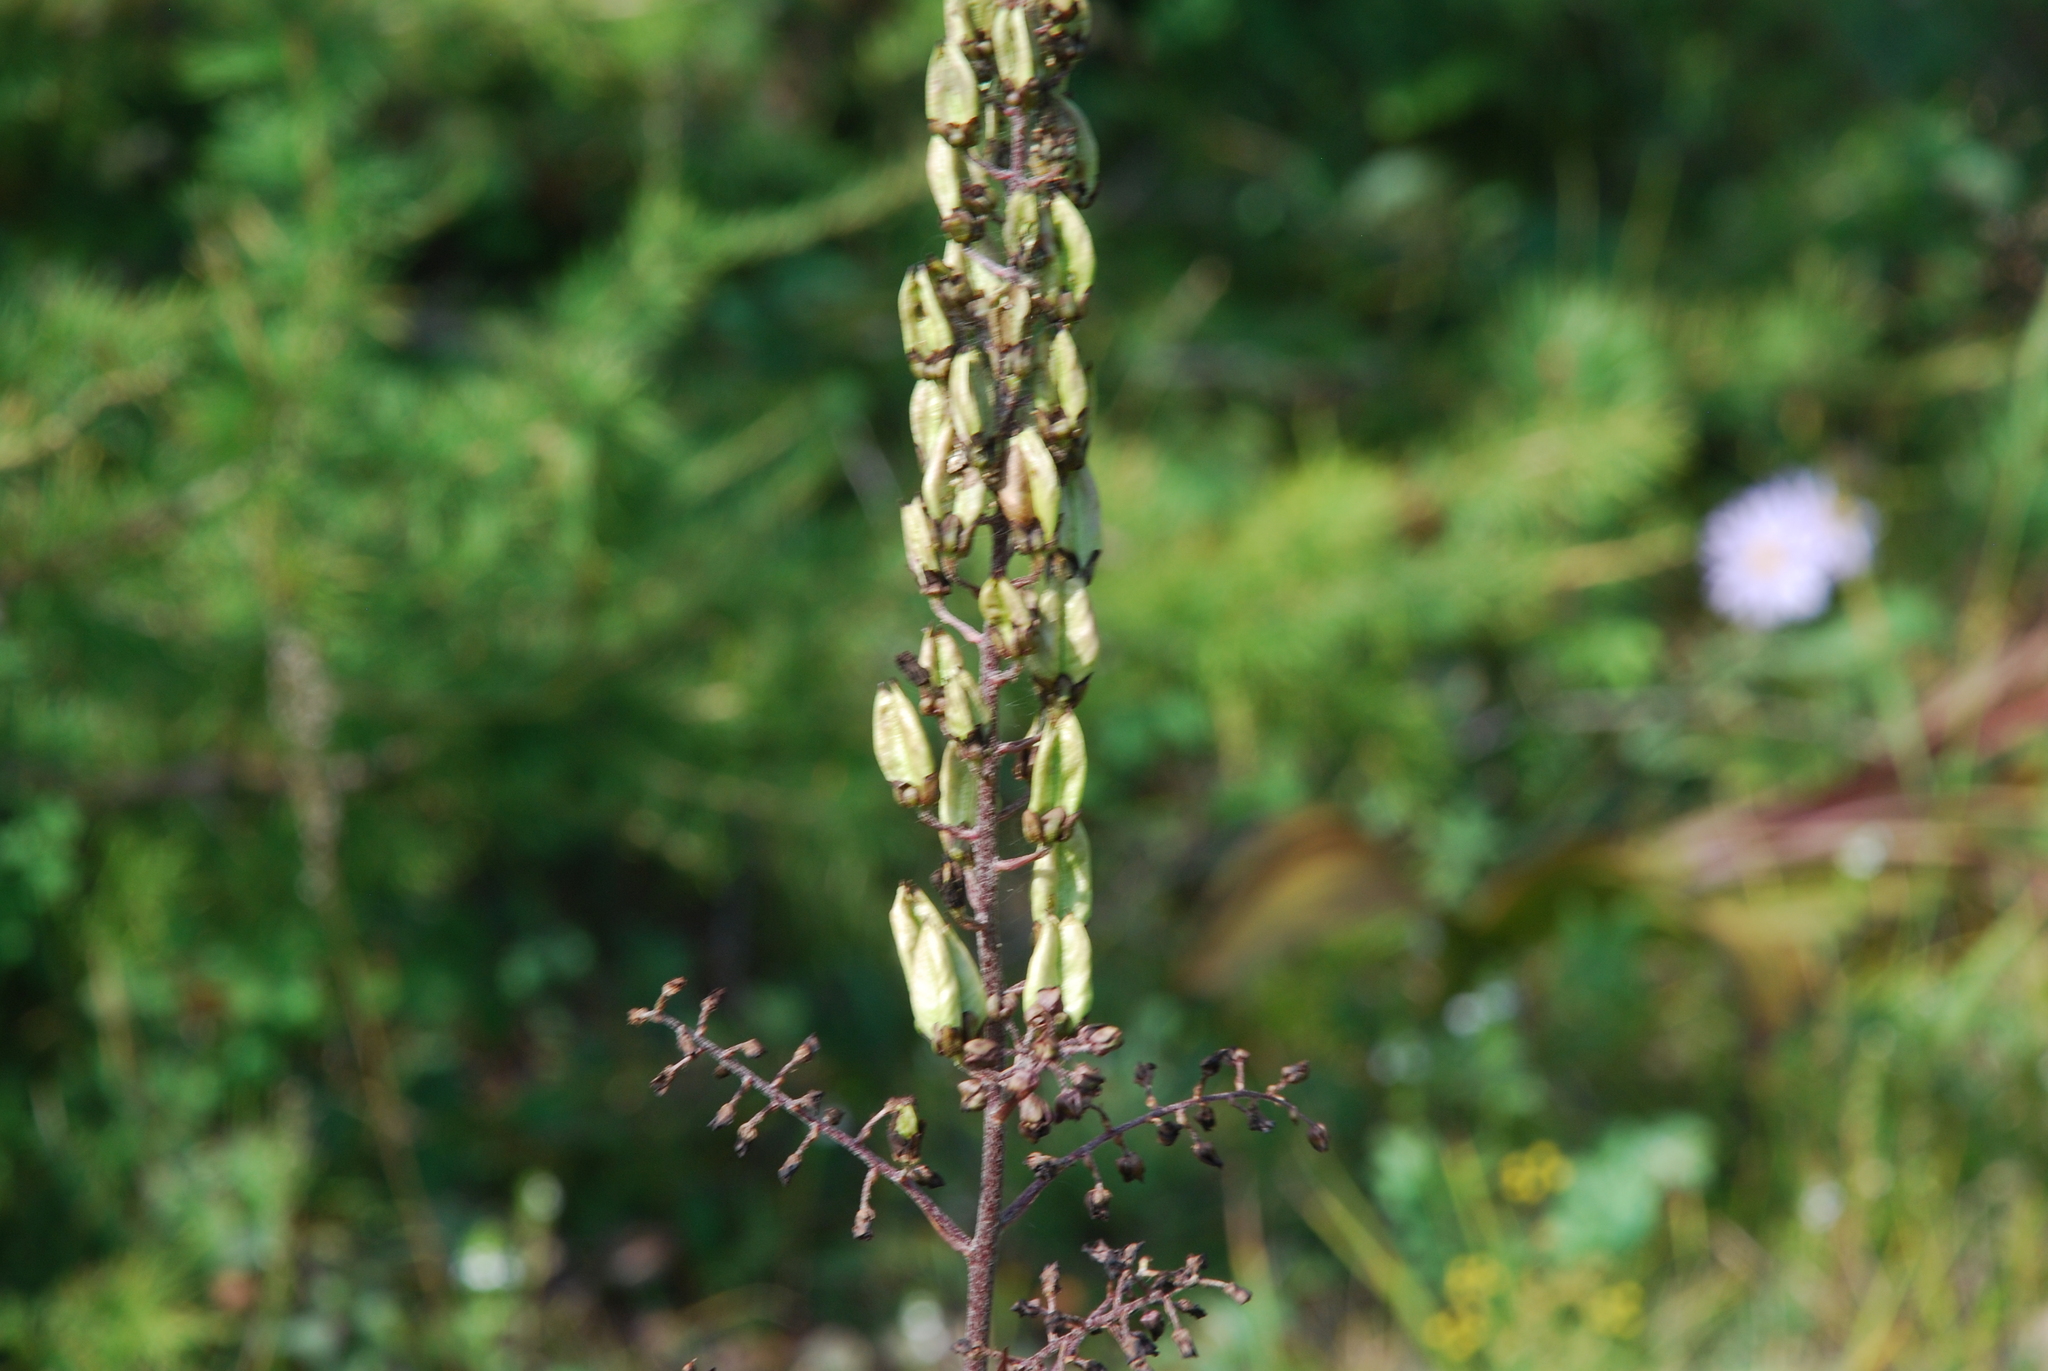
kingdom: Plantae
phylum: Tracheophyta
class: Liliopsida
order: Liliales
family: Melanthiaceae
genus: Veratrum
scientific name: Veratrum nigrum
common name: Black veratrum
